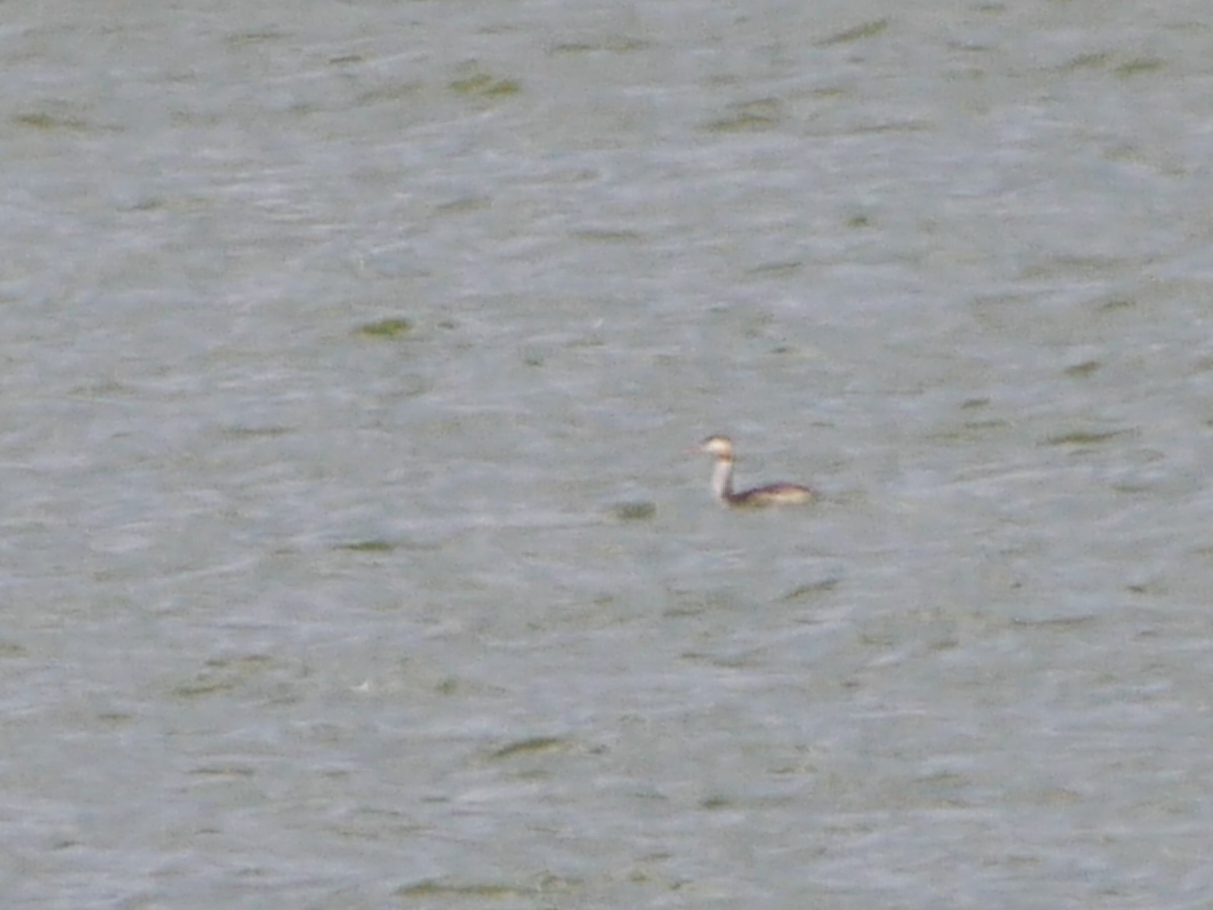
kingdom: Animalia
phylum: Chordata
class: Aves
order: Podicipediformes
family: Podicipedidae
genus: Podiceps
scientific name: Podiceps cristatus
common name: Great crested grebe
